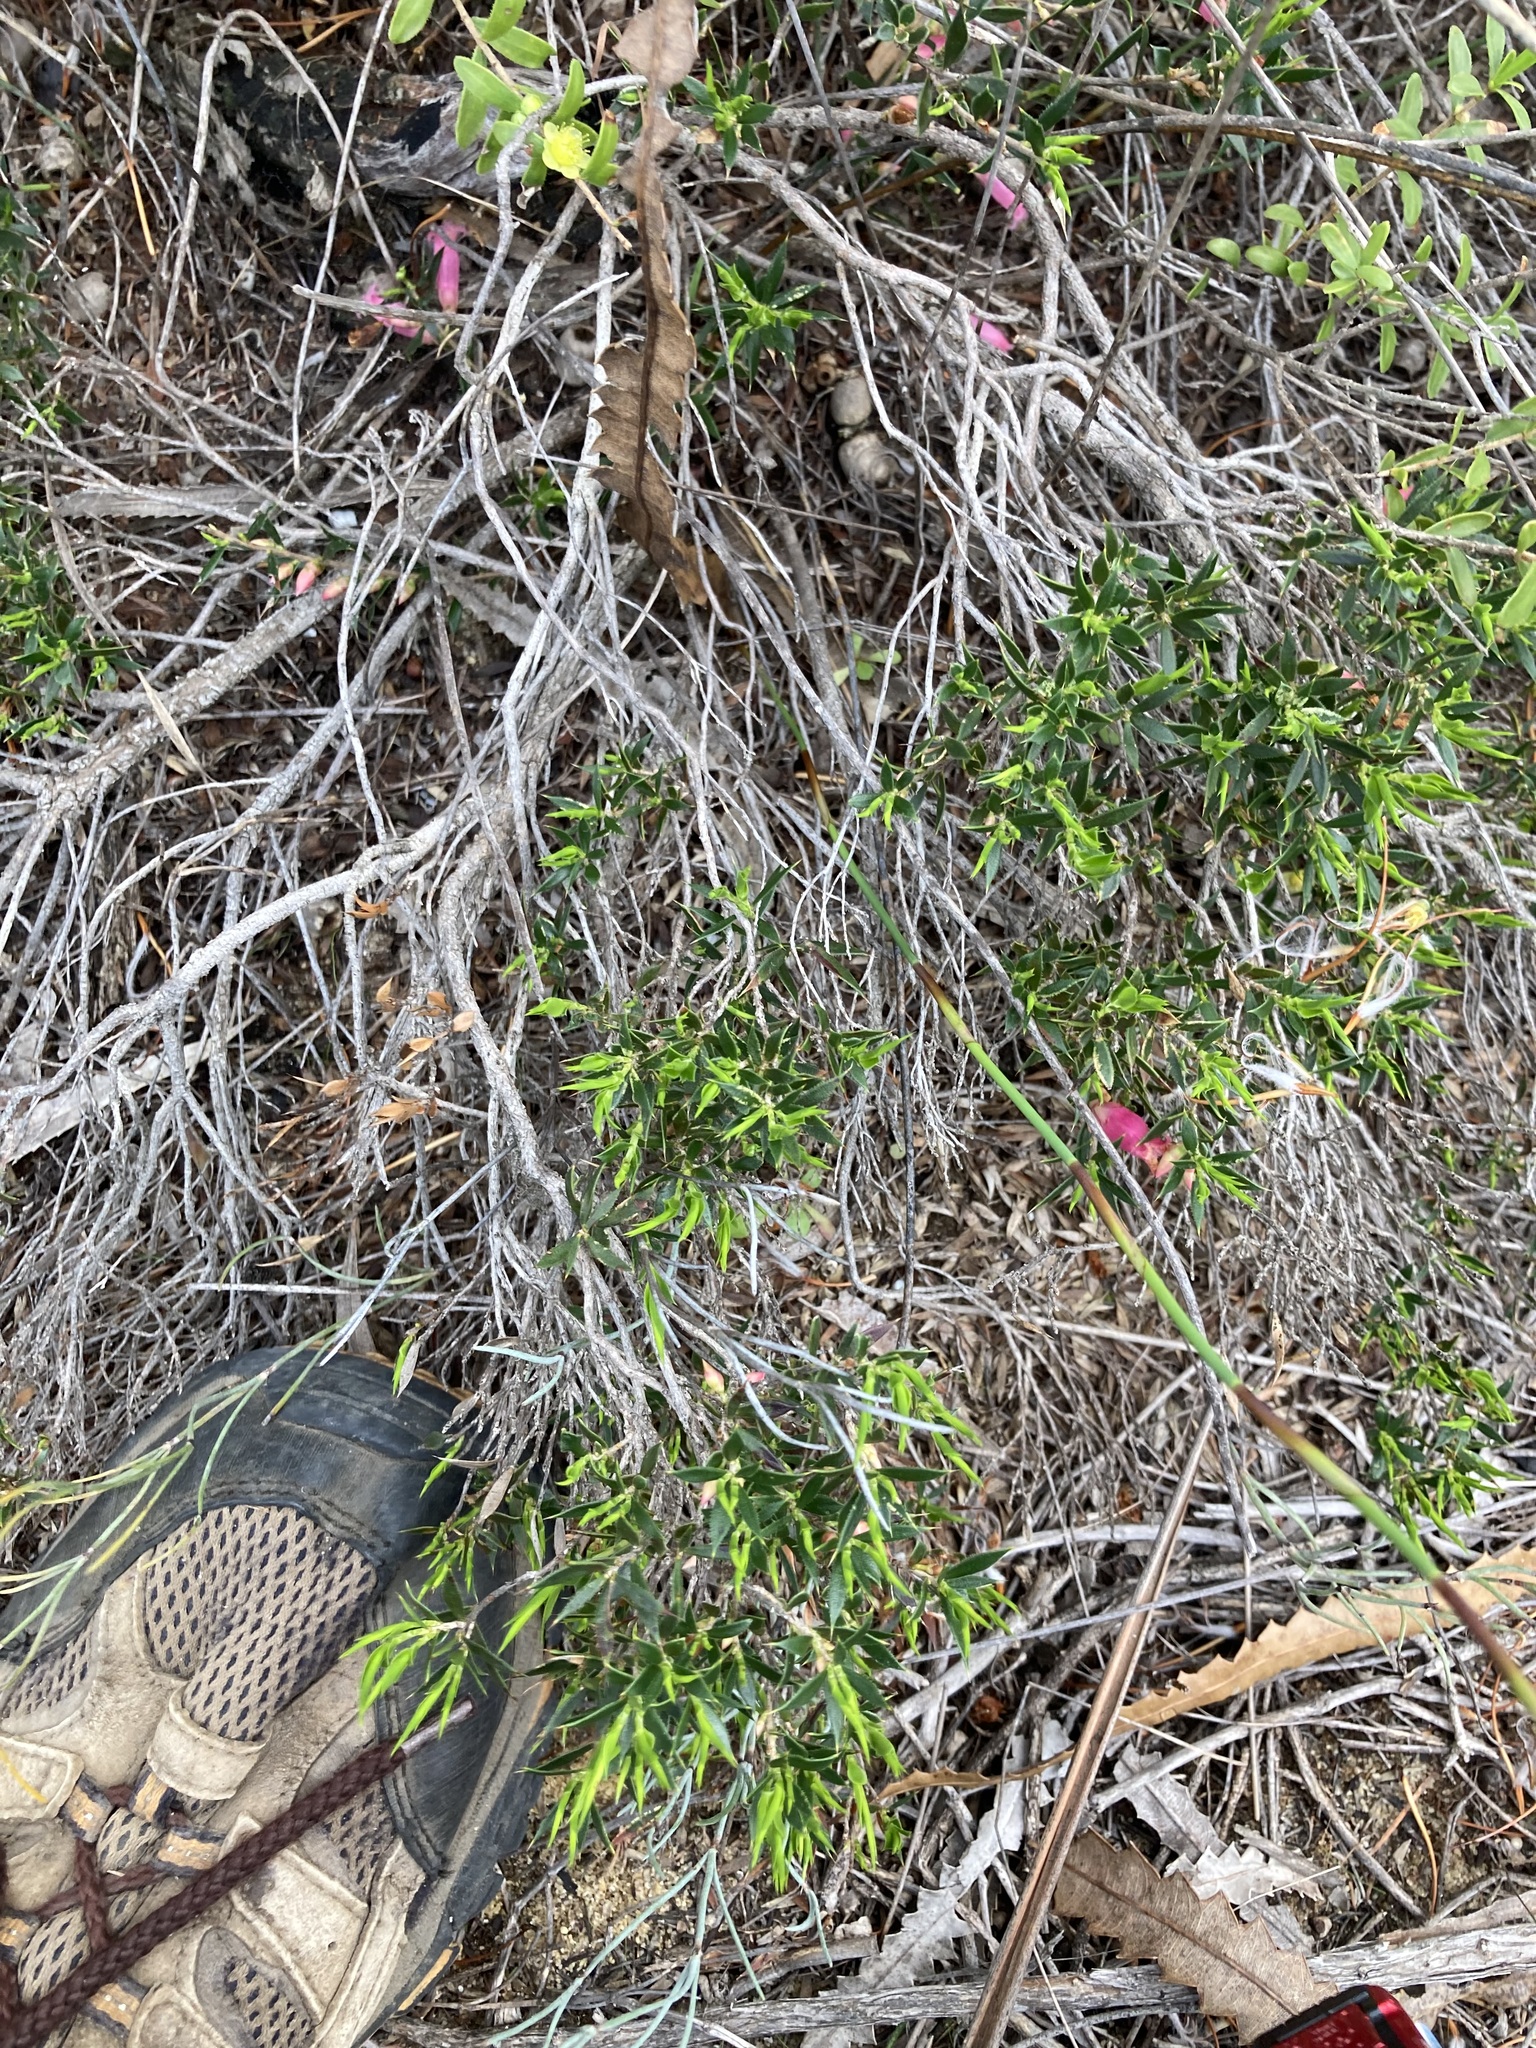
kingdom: Plantae
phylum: Tracheophyta
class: Magnoliopsida
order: Ericales
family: Ericaceae
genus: Styphelia
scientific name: Styphelia microdonta
